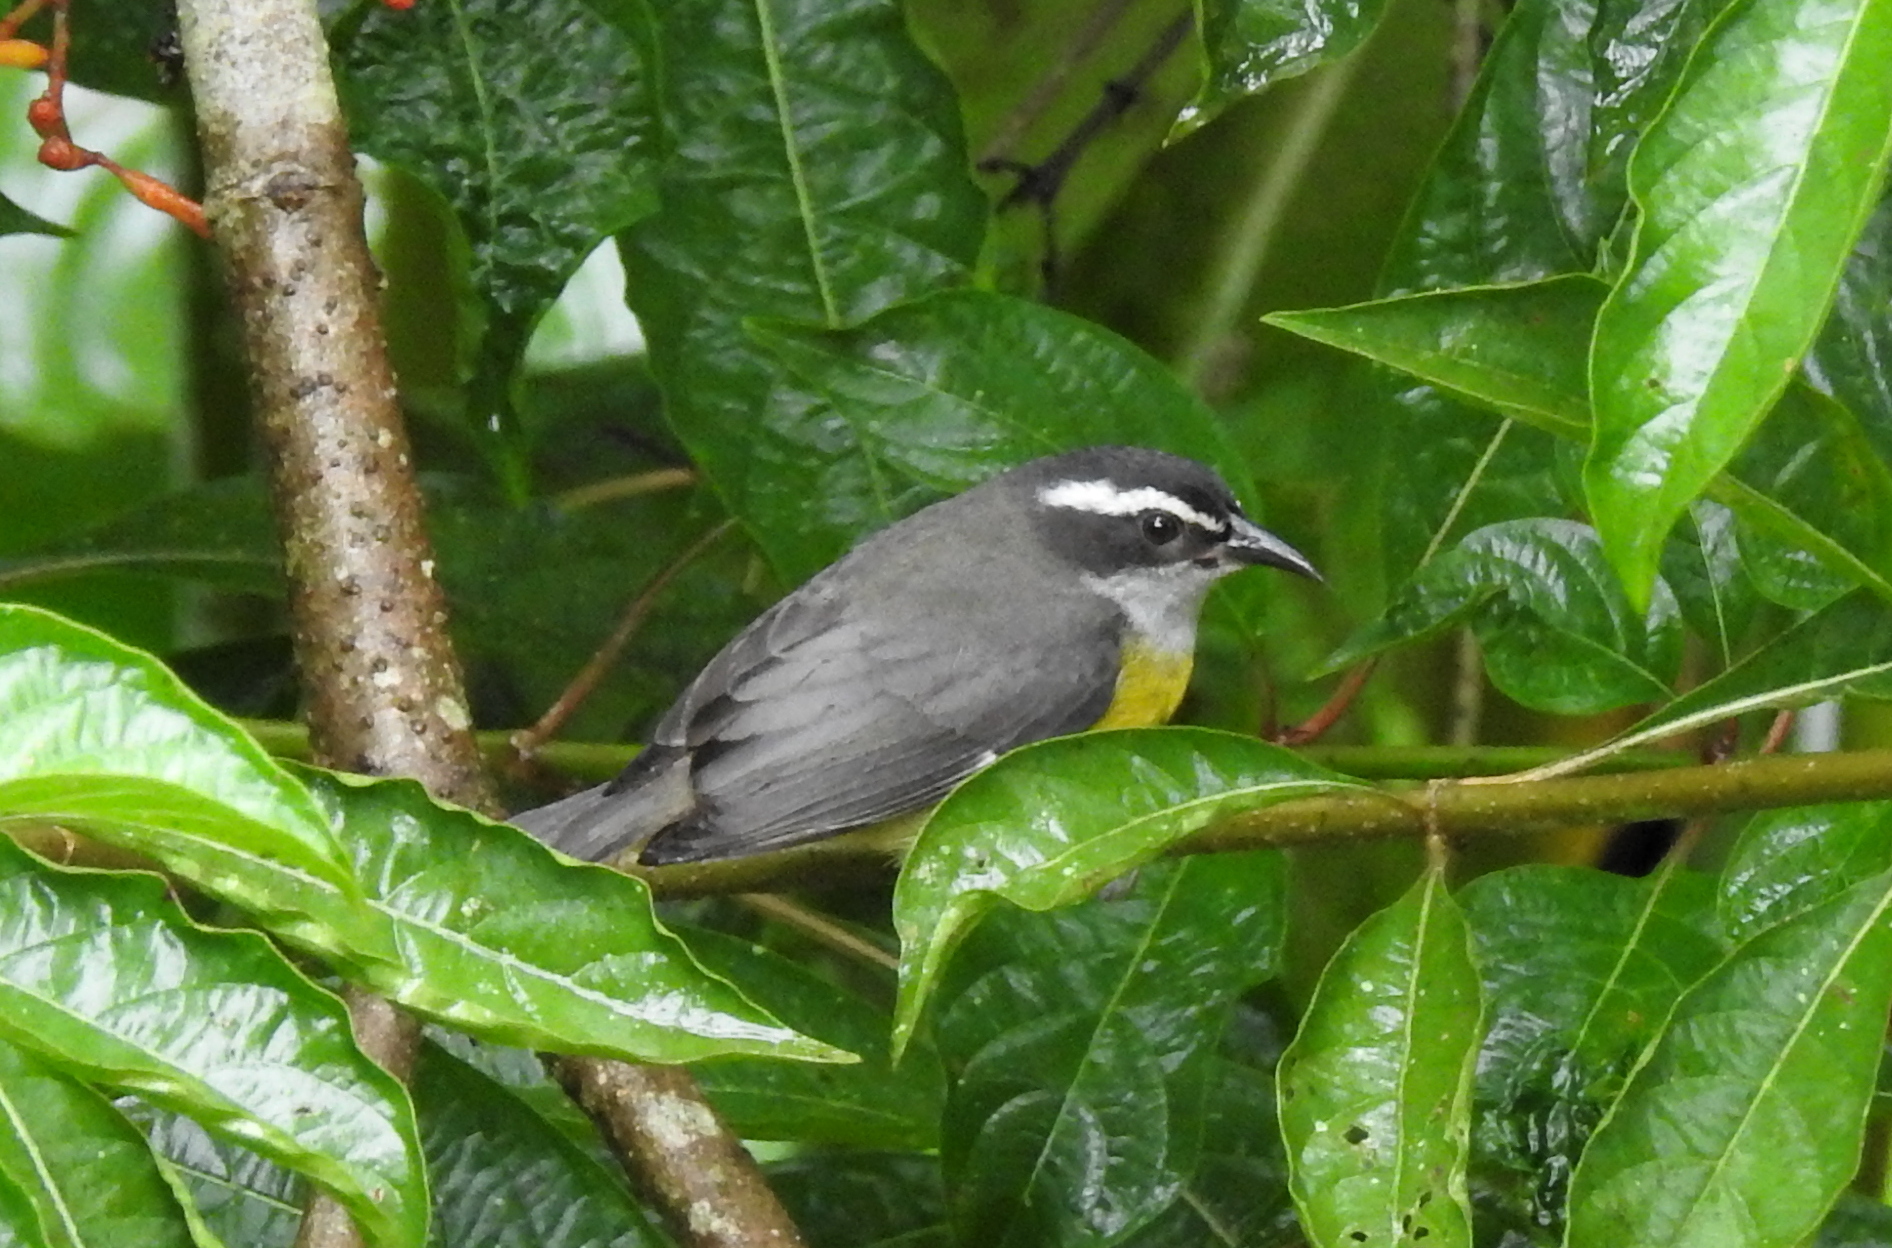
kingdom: Animalia
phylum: Chordata
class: Aves
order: Passeriformes
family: Thraupidae
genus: Coereba
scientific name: Coereba flaveola
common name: Bananaquit
